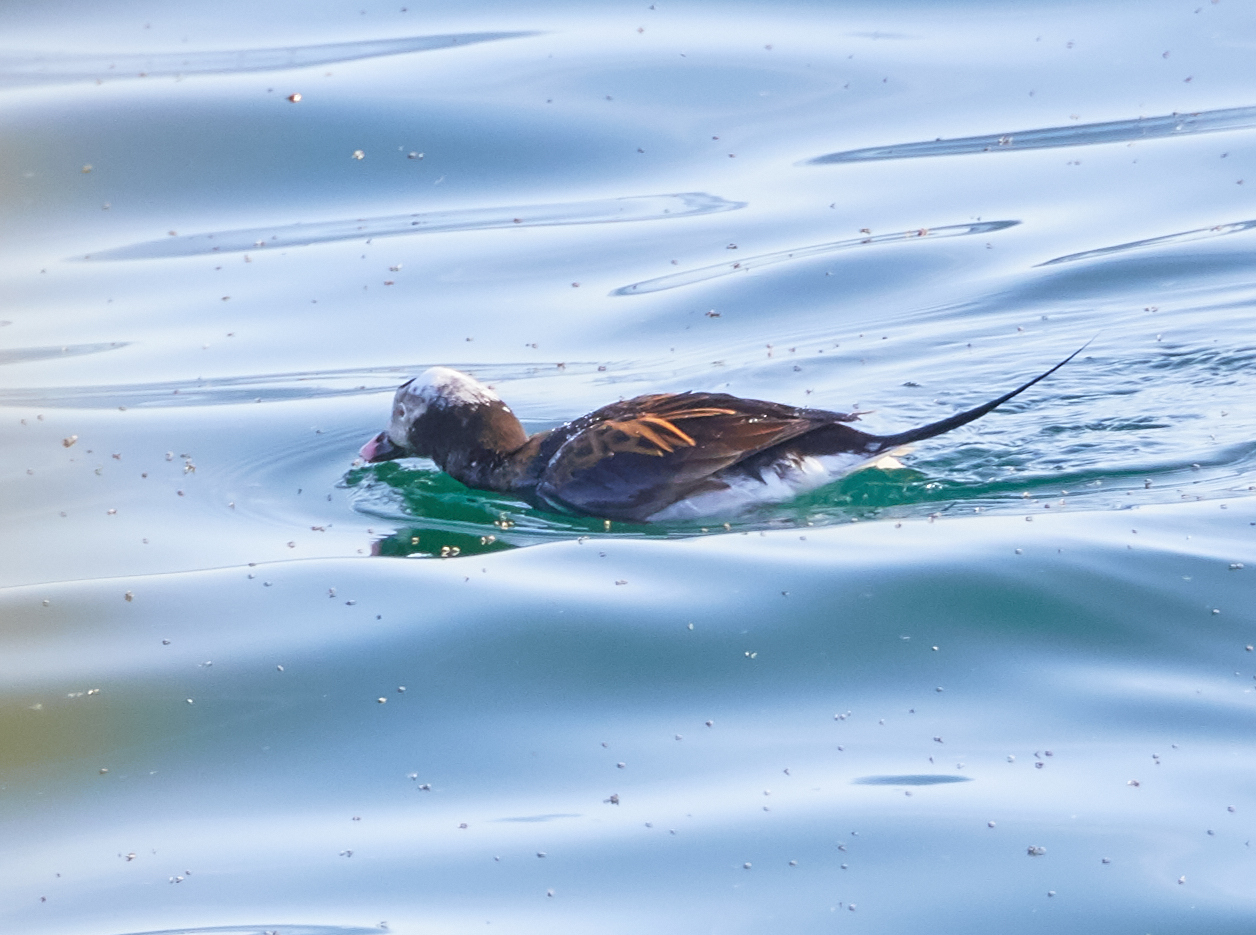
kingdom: Animalia
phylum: Chordata
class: Aves
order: Anseriformes
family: Anatidae
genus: Clangula
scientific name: Clangula hyemalis
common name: Long-tailed duck
